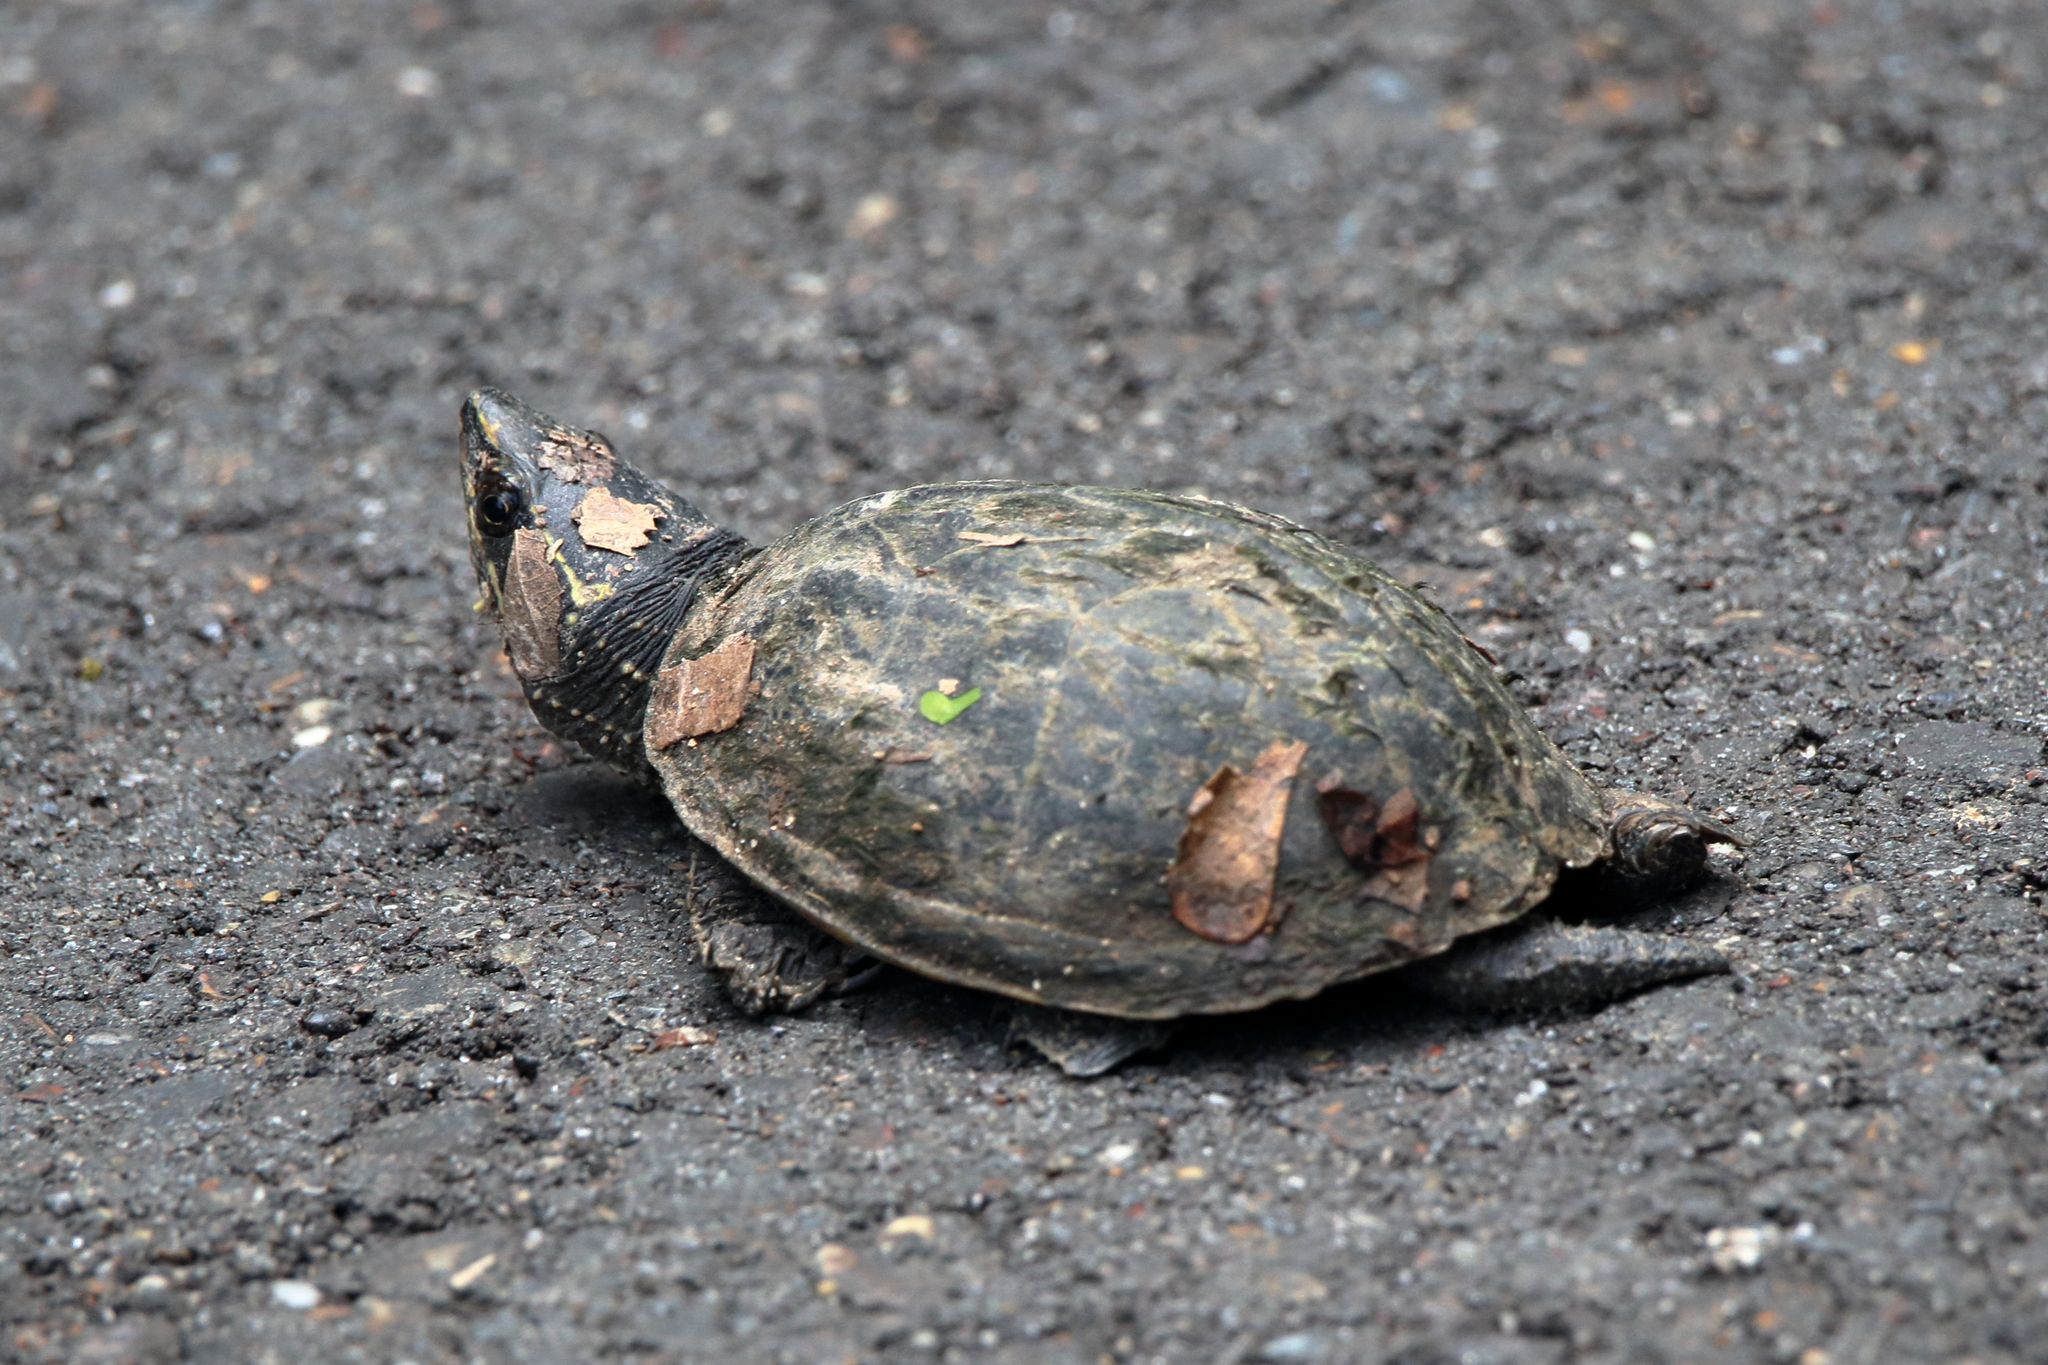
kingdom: Animalia
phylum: Chordata
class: Testudines
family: Kinosternidae
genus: Sternotherus
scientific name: Sternotherus odoratus
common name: Common musk turtle
